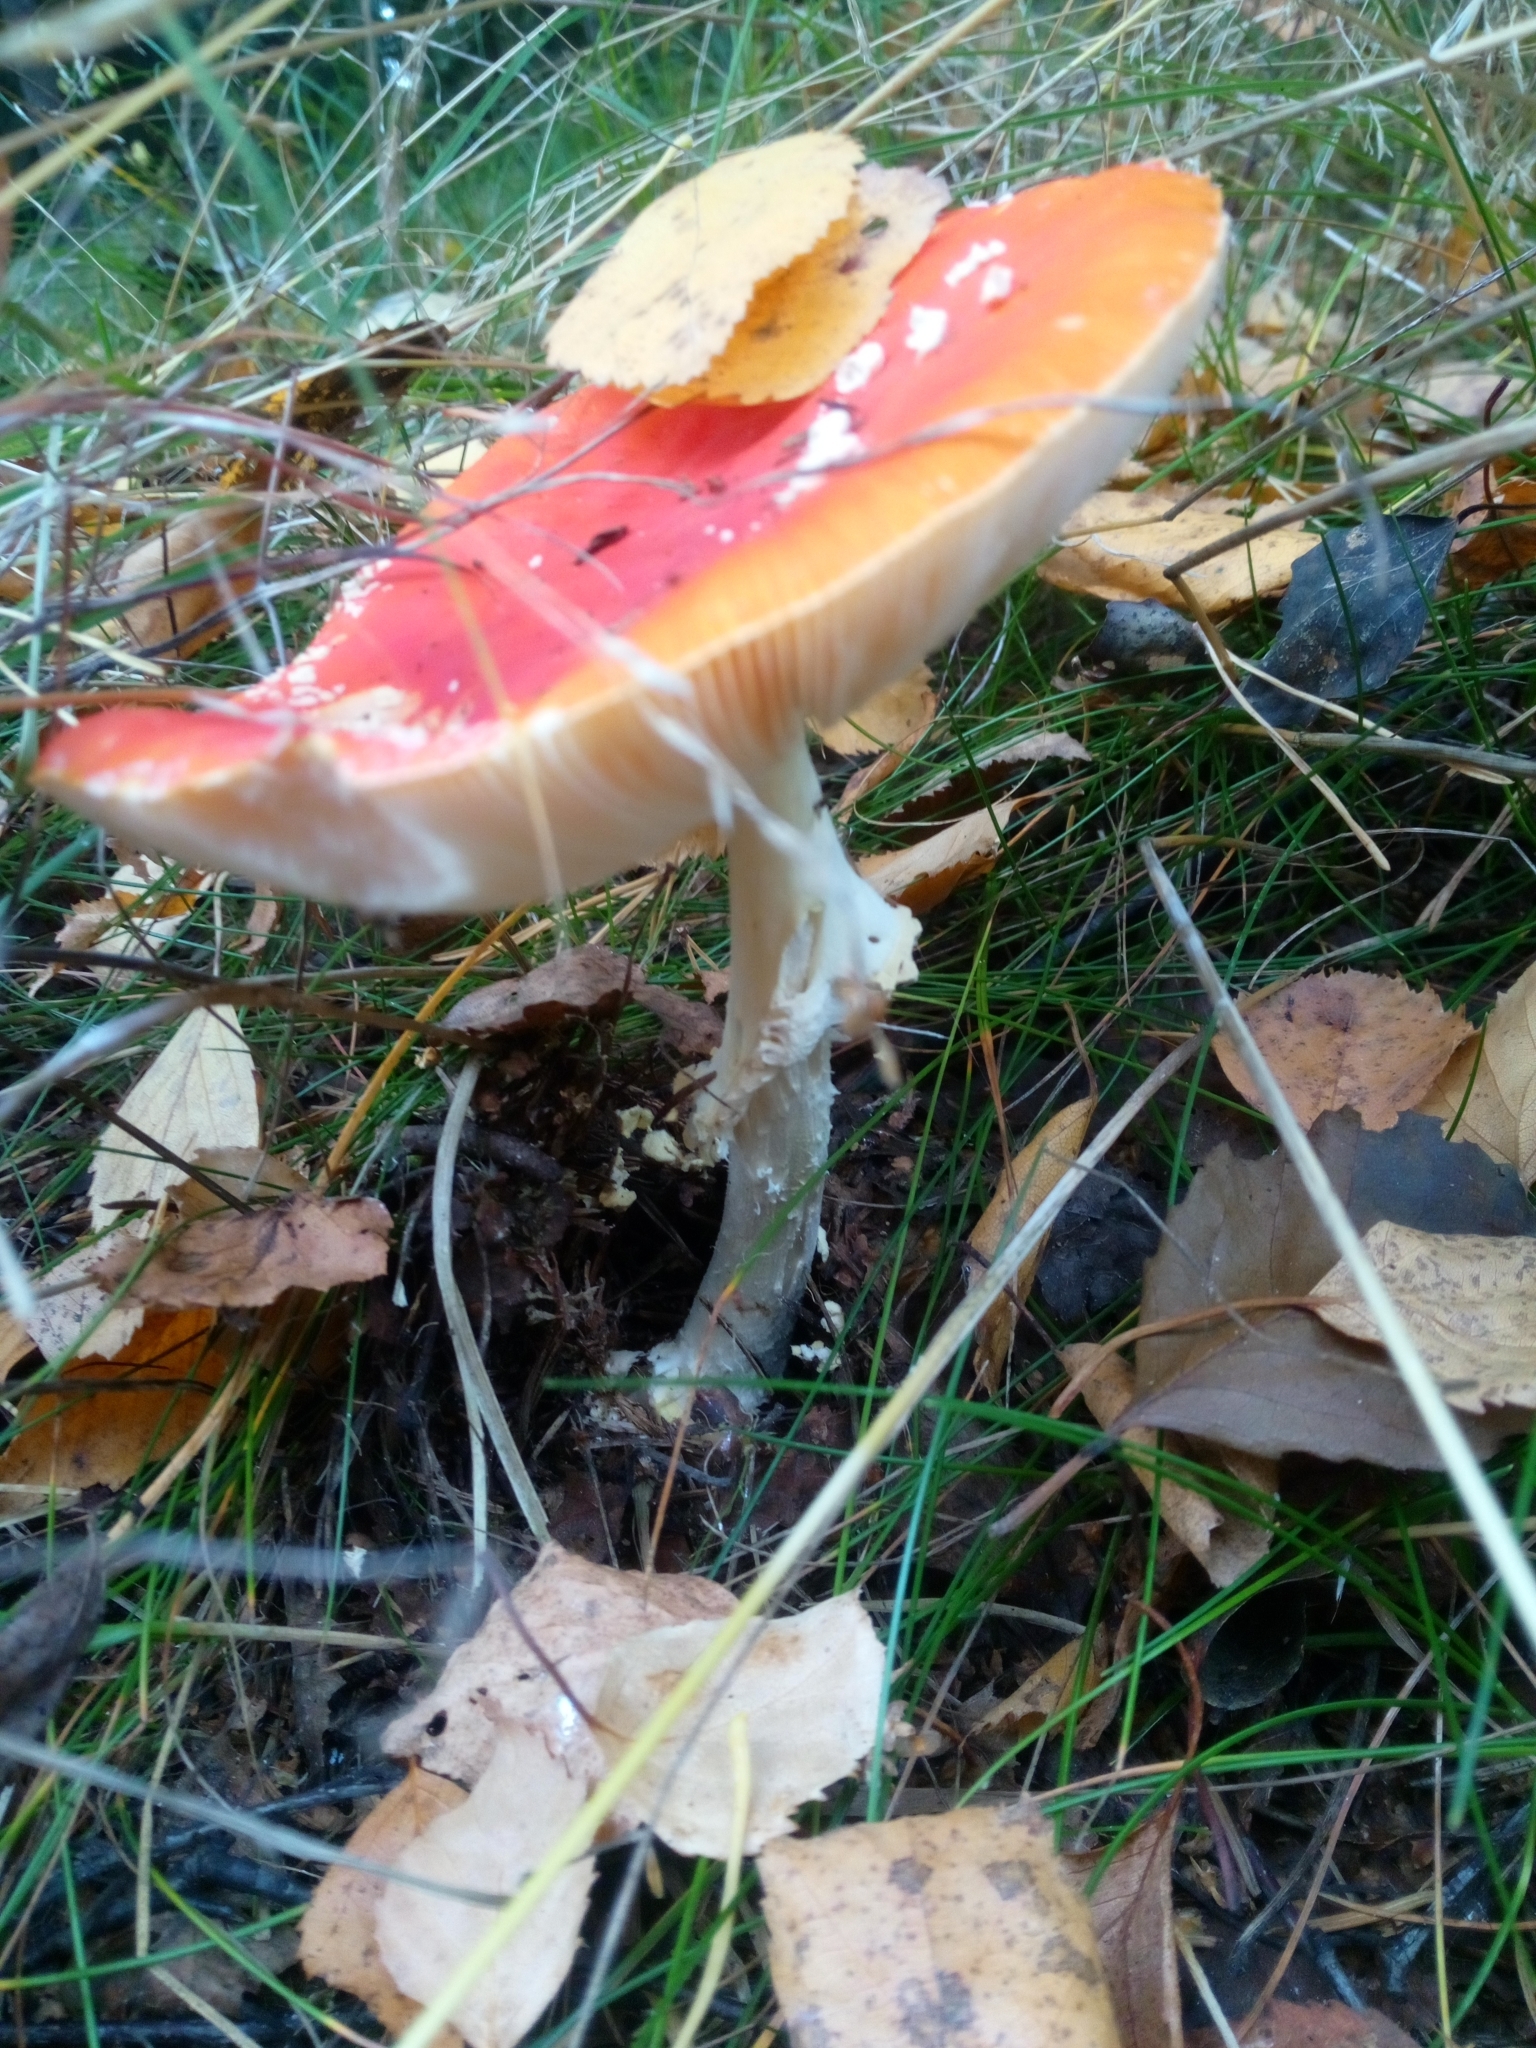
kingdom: Fungi
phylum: Basidiomycota
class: Agaricomycetes
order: Agaricales
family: Amanitaceae
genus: Amanita
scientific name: Amanita muscaria
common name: Fly agaric
